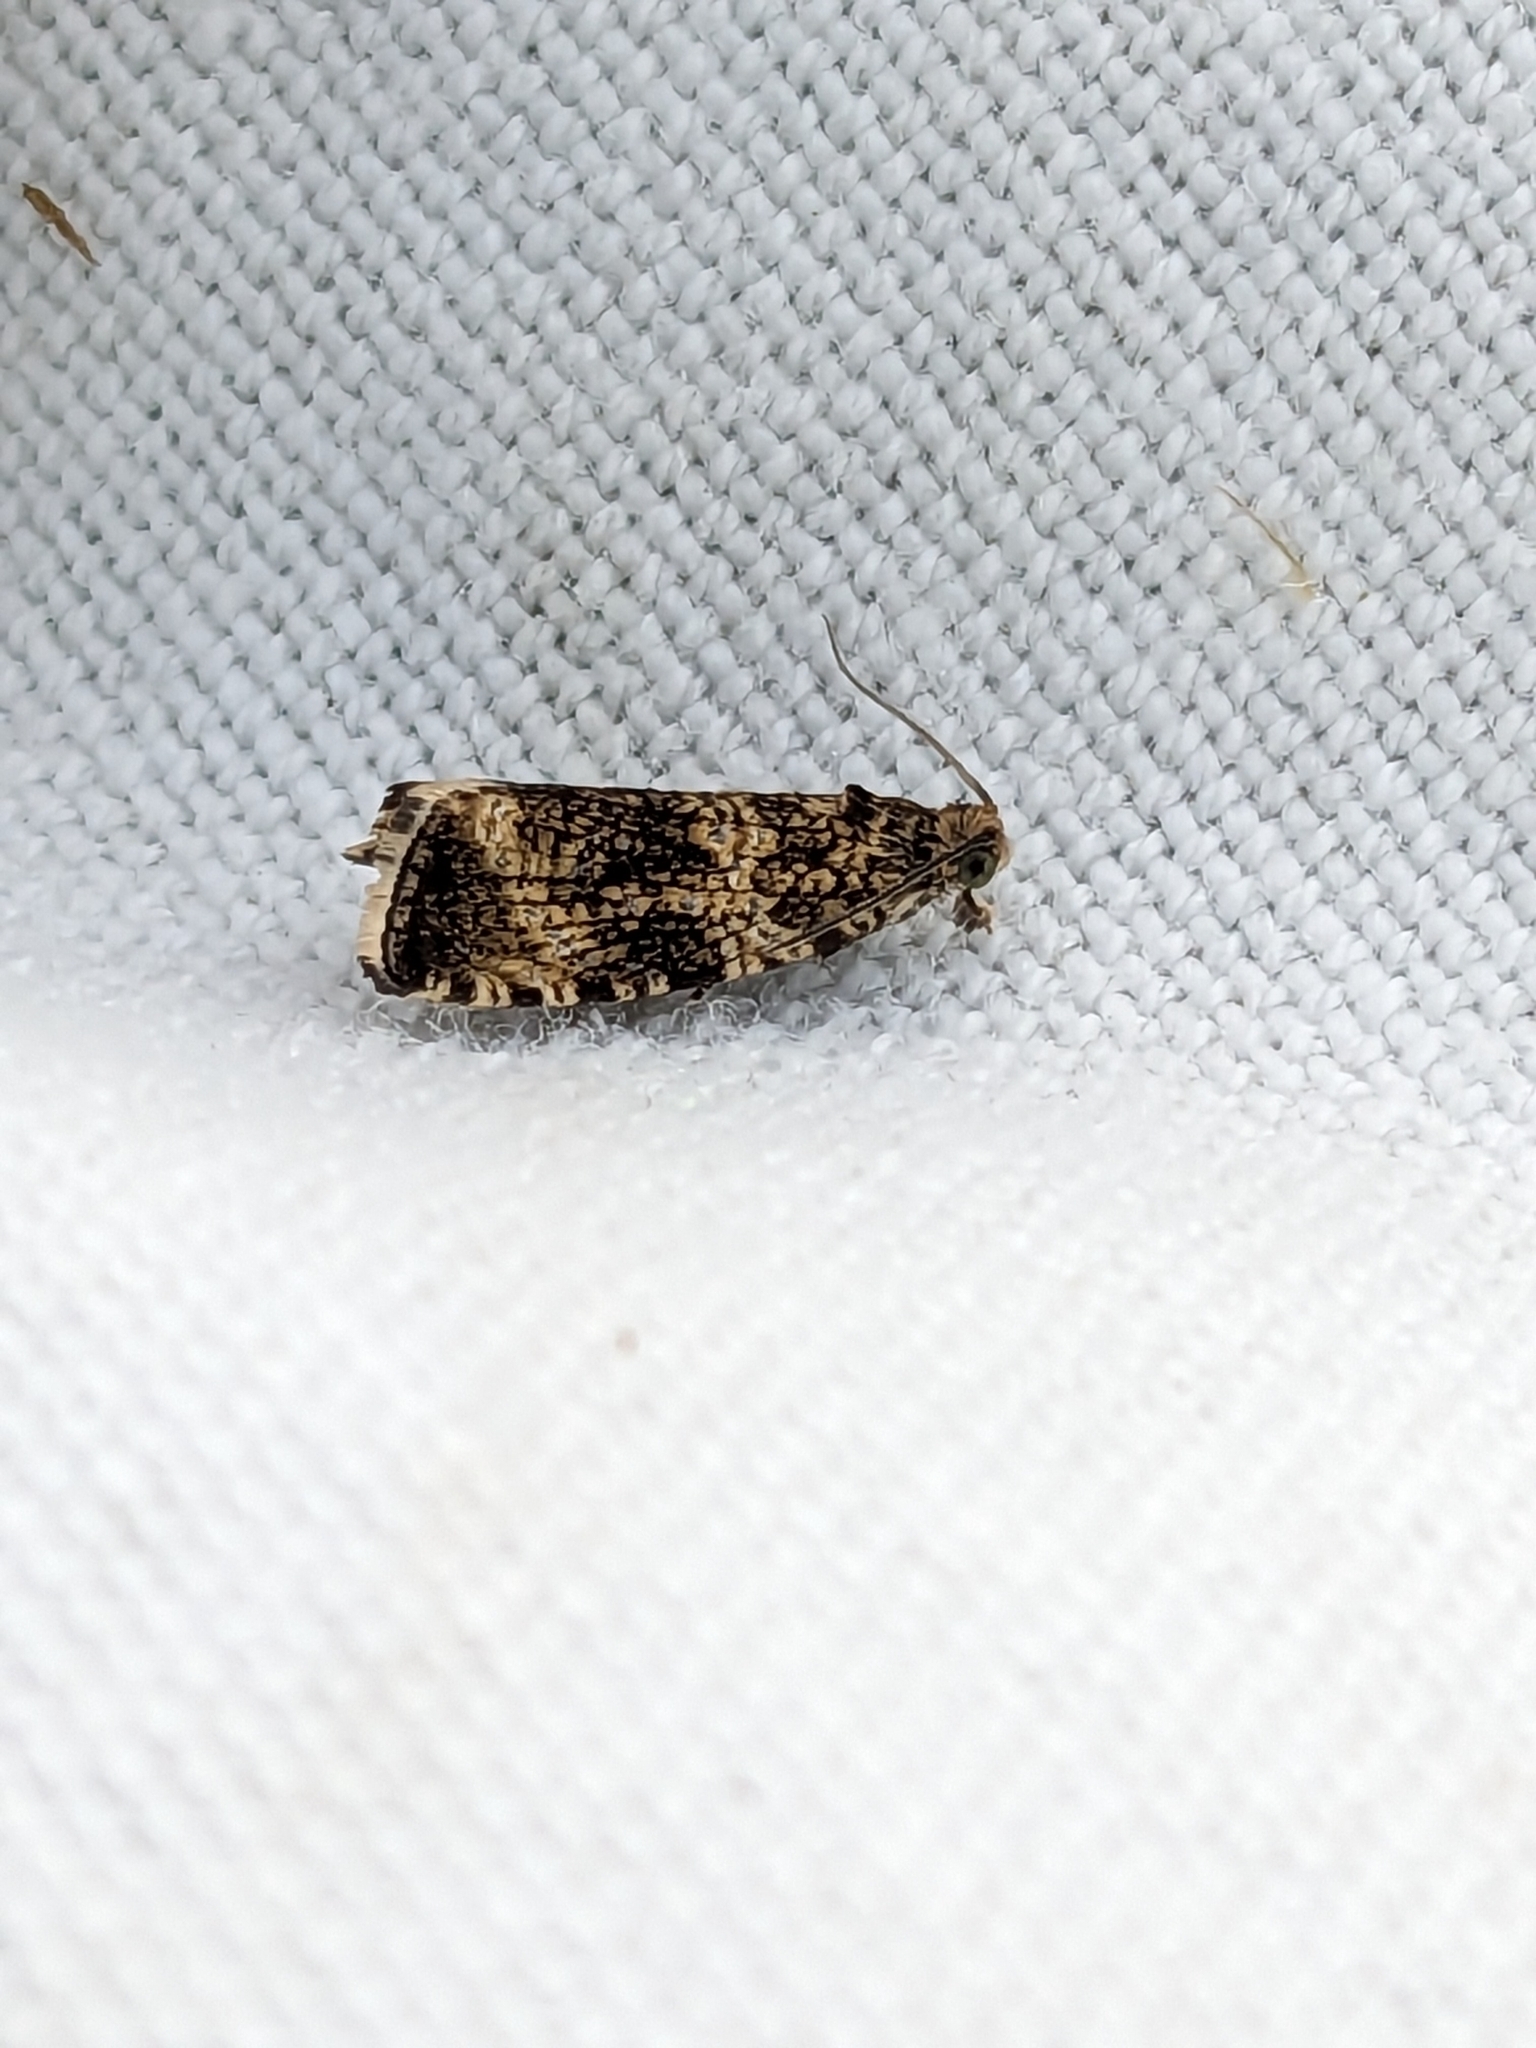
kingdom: Animalia
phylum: Arthropoda
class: Insecta
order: Lepidoptera
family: Tortricidae
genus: Syricoris
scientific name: Syricoris lacunana
